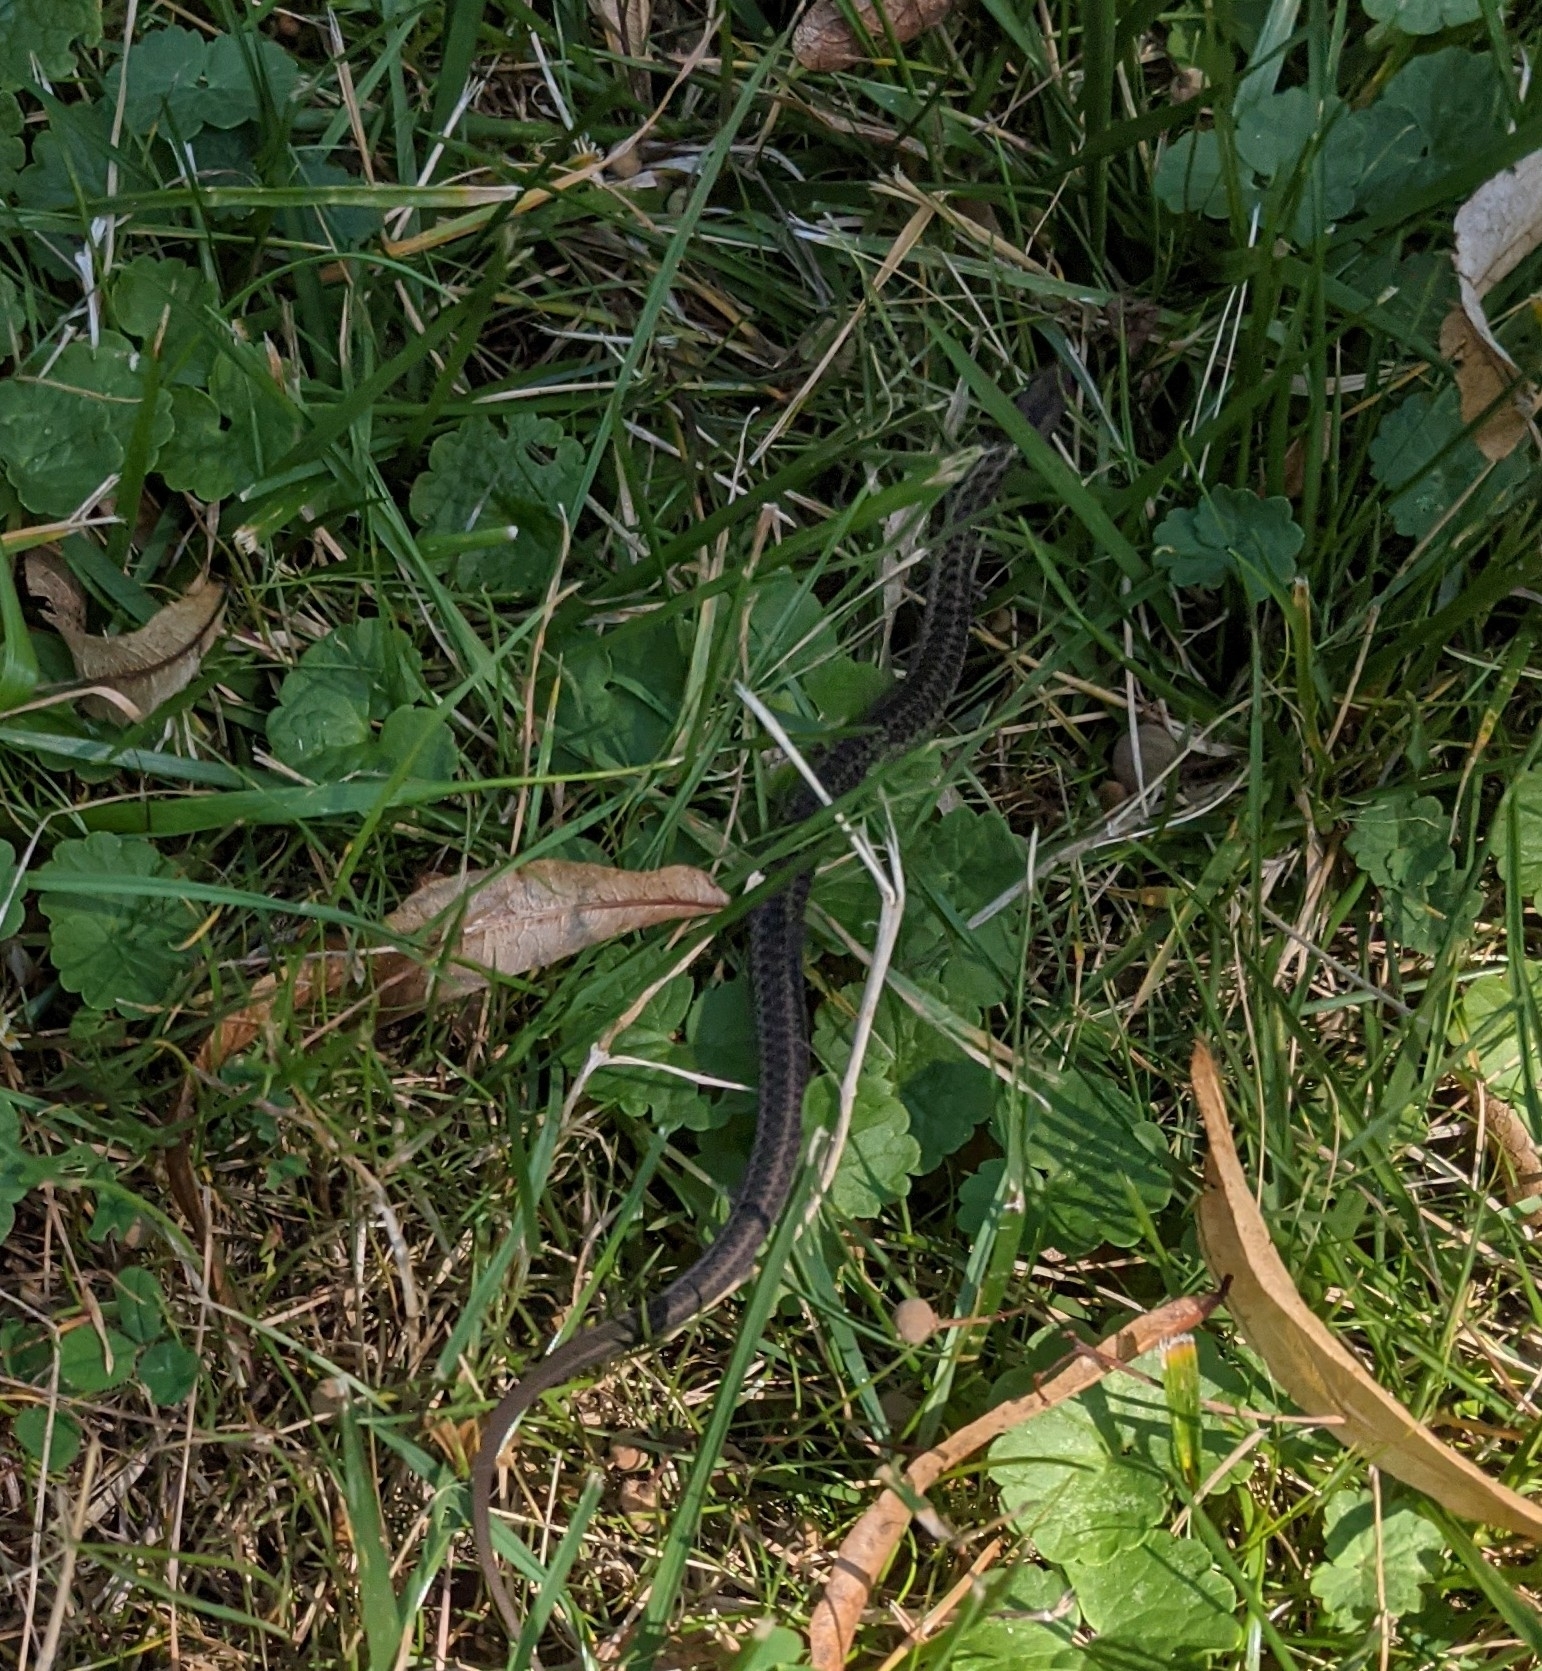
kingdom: Animalia
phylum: Chordata
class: Squamata
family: Colubridae
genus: Thamnophis
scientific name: Thamnophis sirtalis
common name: Common garter snake
